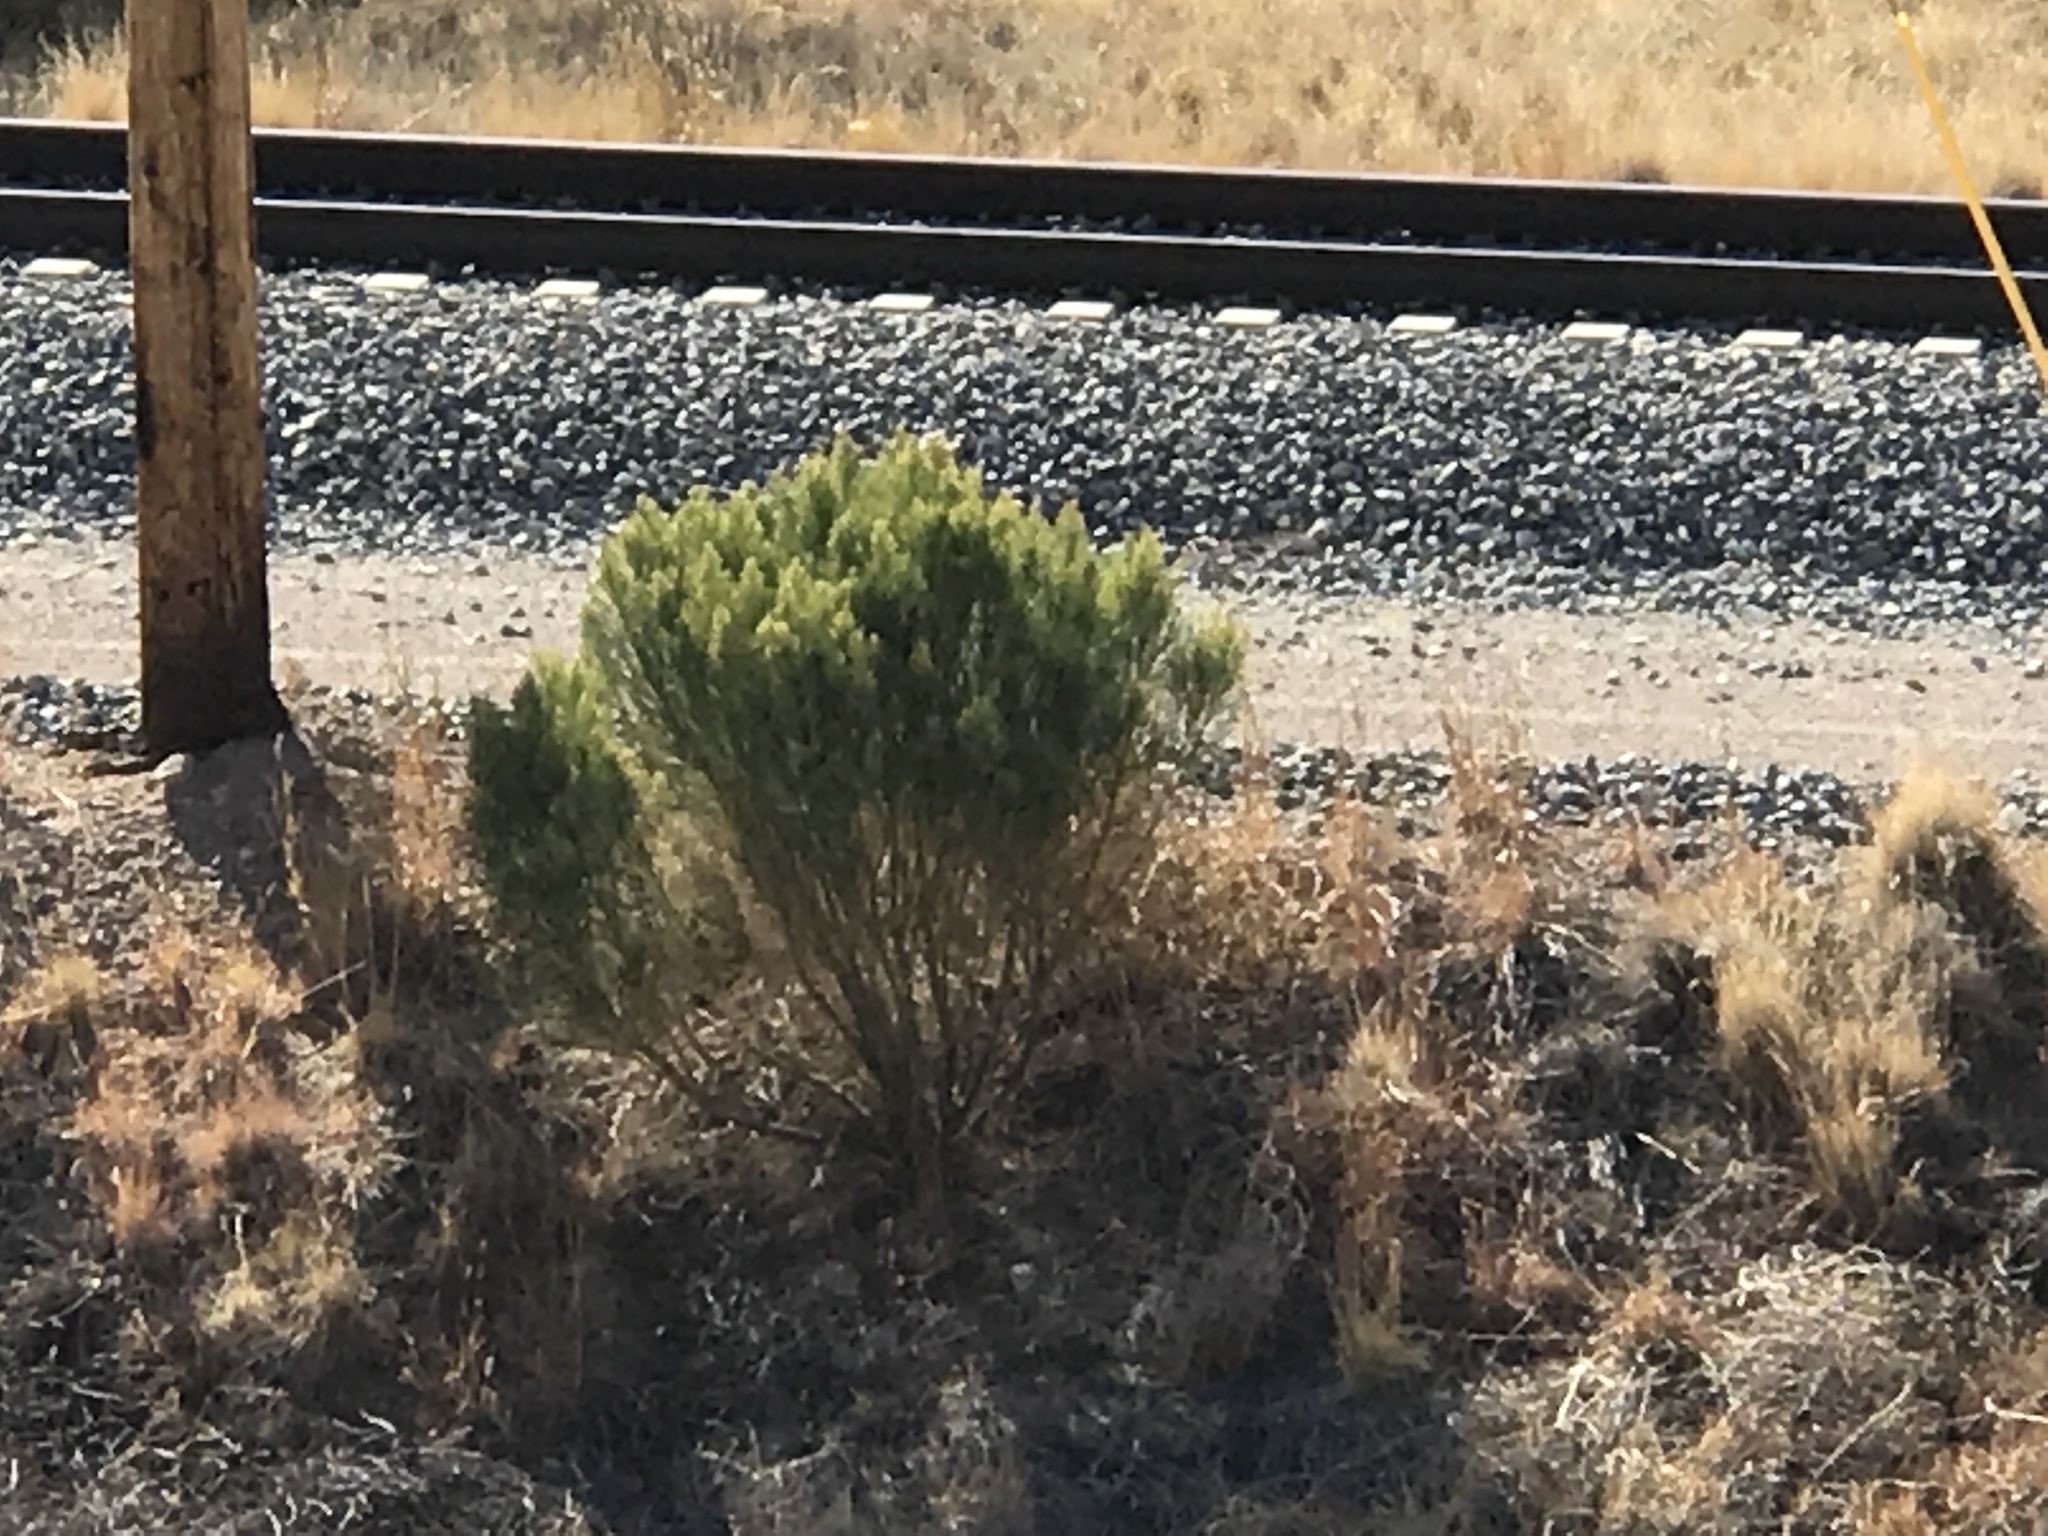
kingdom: Plantae
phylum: Tracheophyta
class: Magnoliopsida
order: Asterales
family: Asteraceae
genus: Baccharis
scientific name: Baccharis sarothroides
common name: Desert-broom
